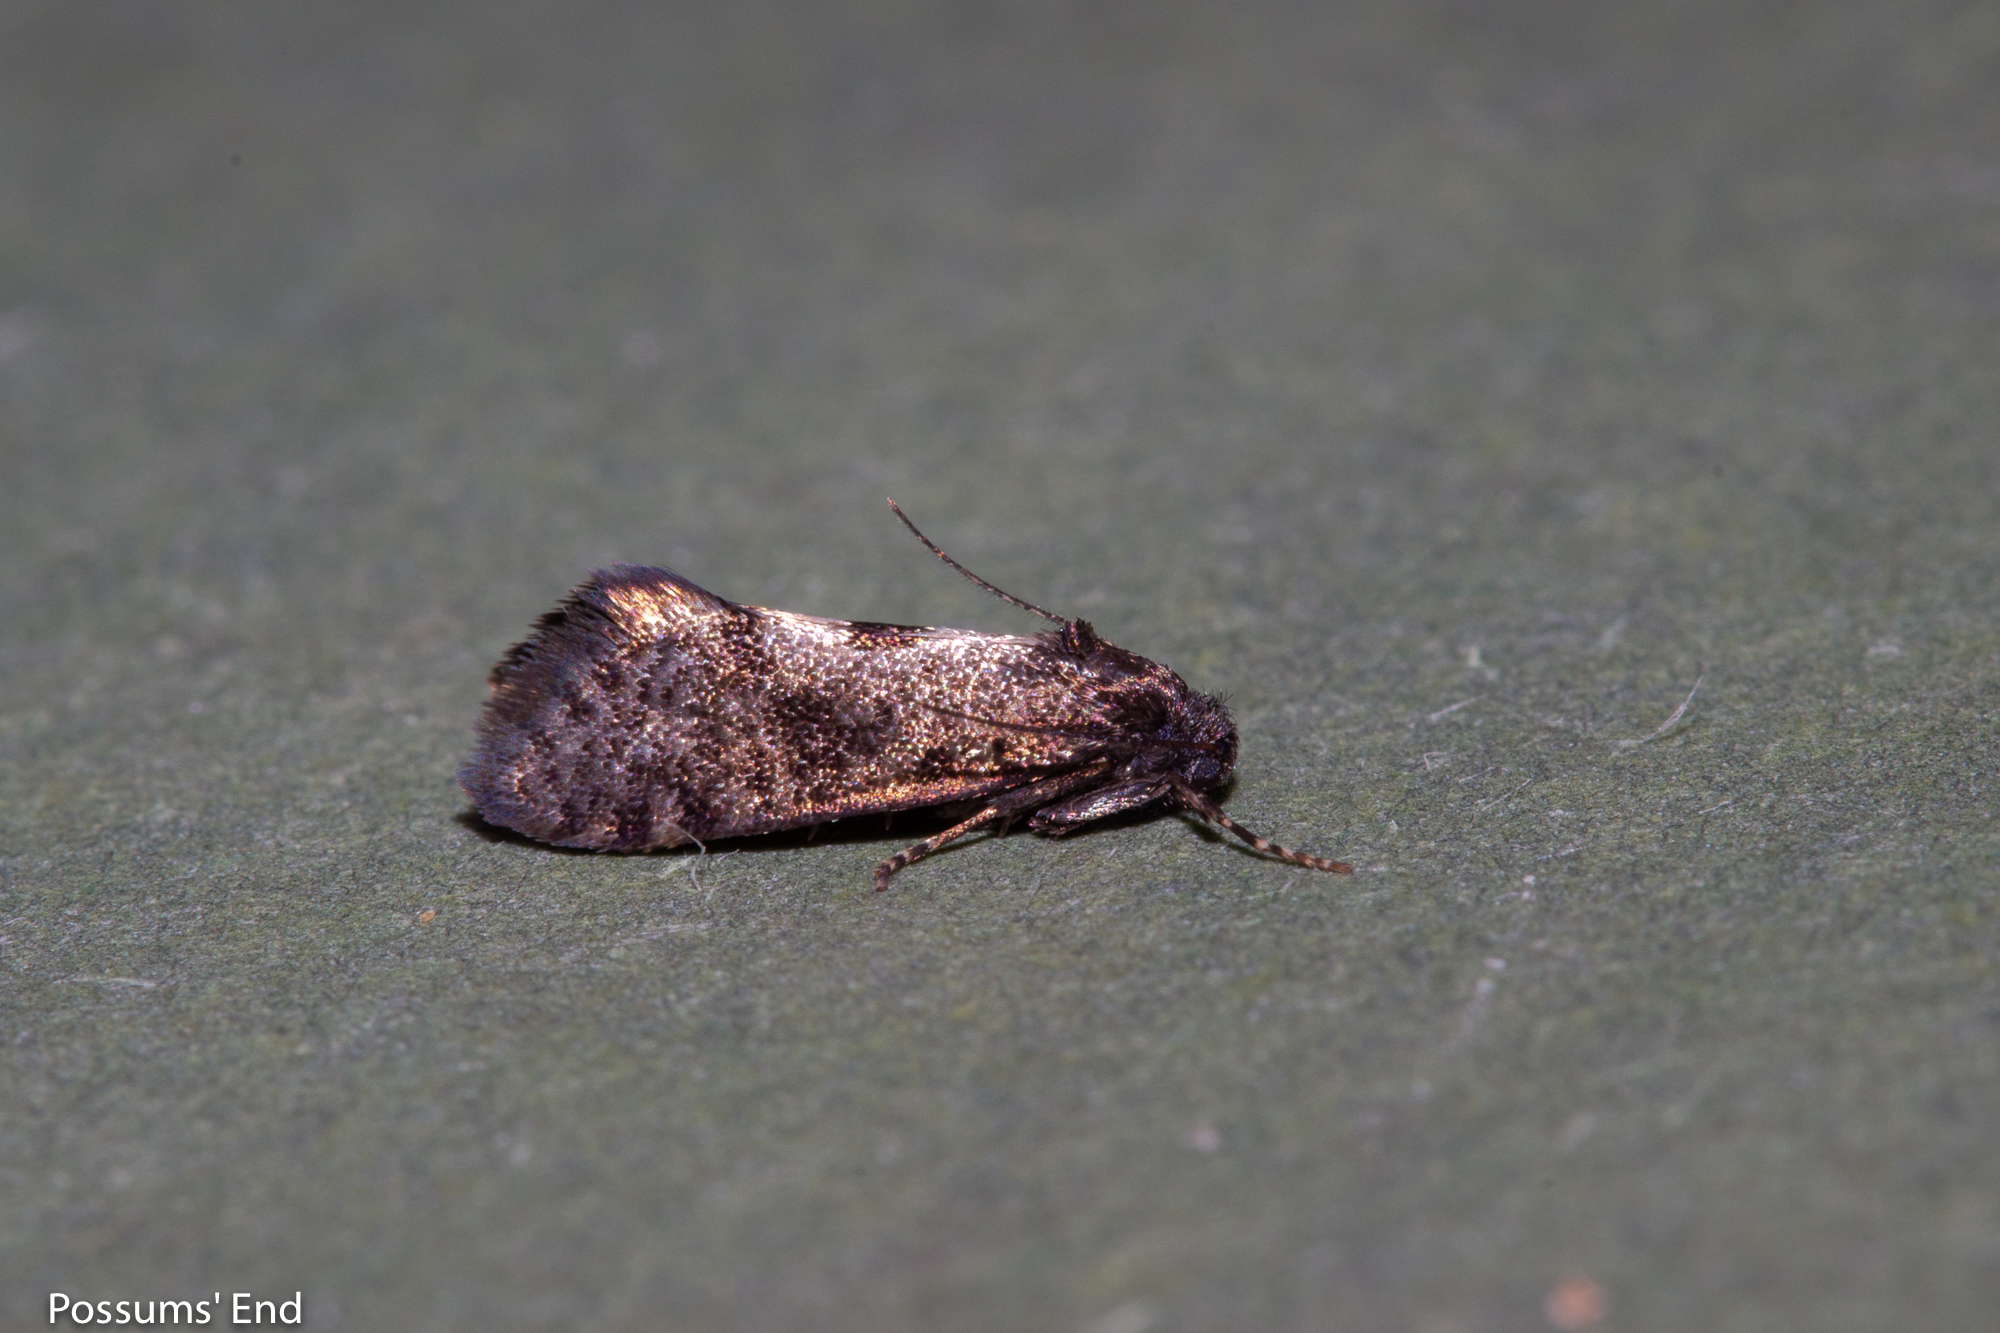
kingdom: Animalia
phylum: Arthropoda
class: Insecta
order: Lepidoptera
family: Psychidae
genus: Mallobathra
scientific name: Mallobathra perisseuta
